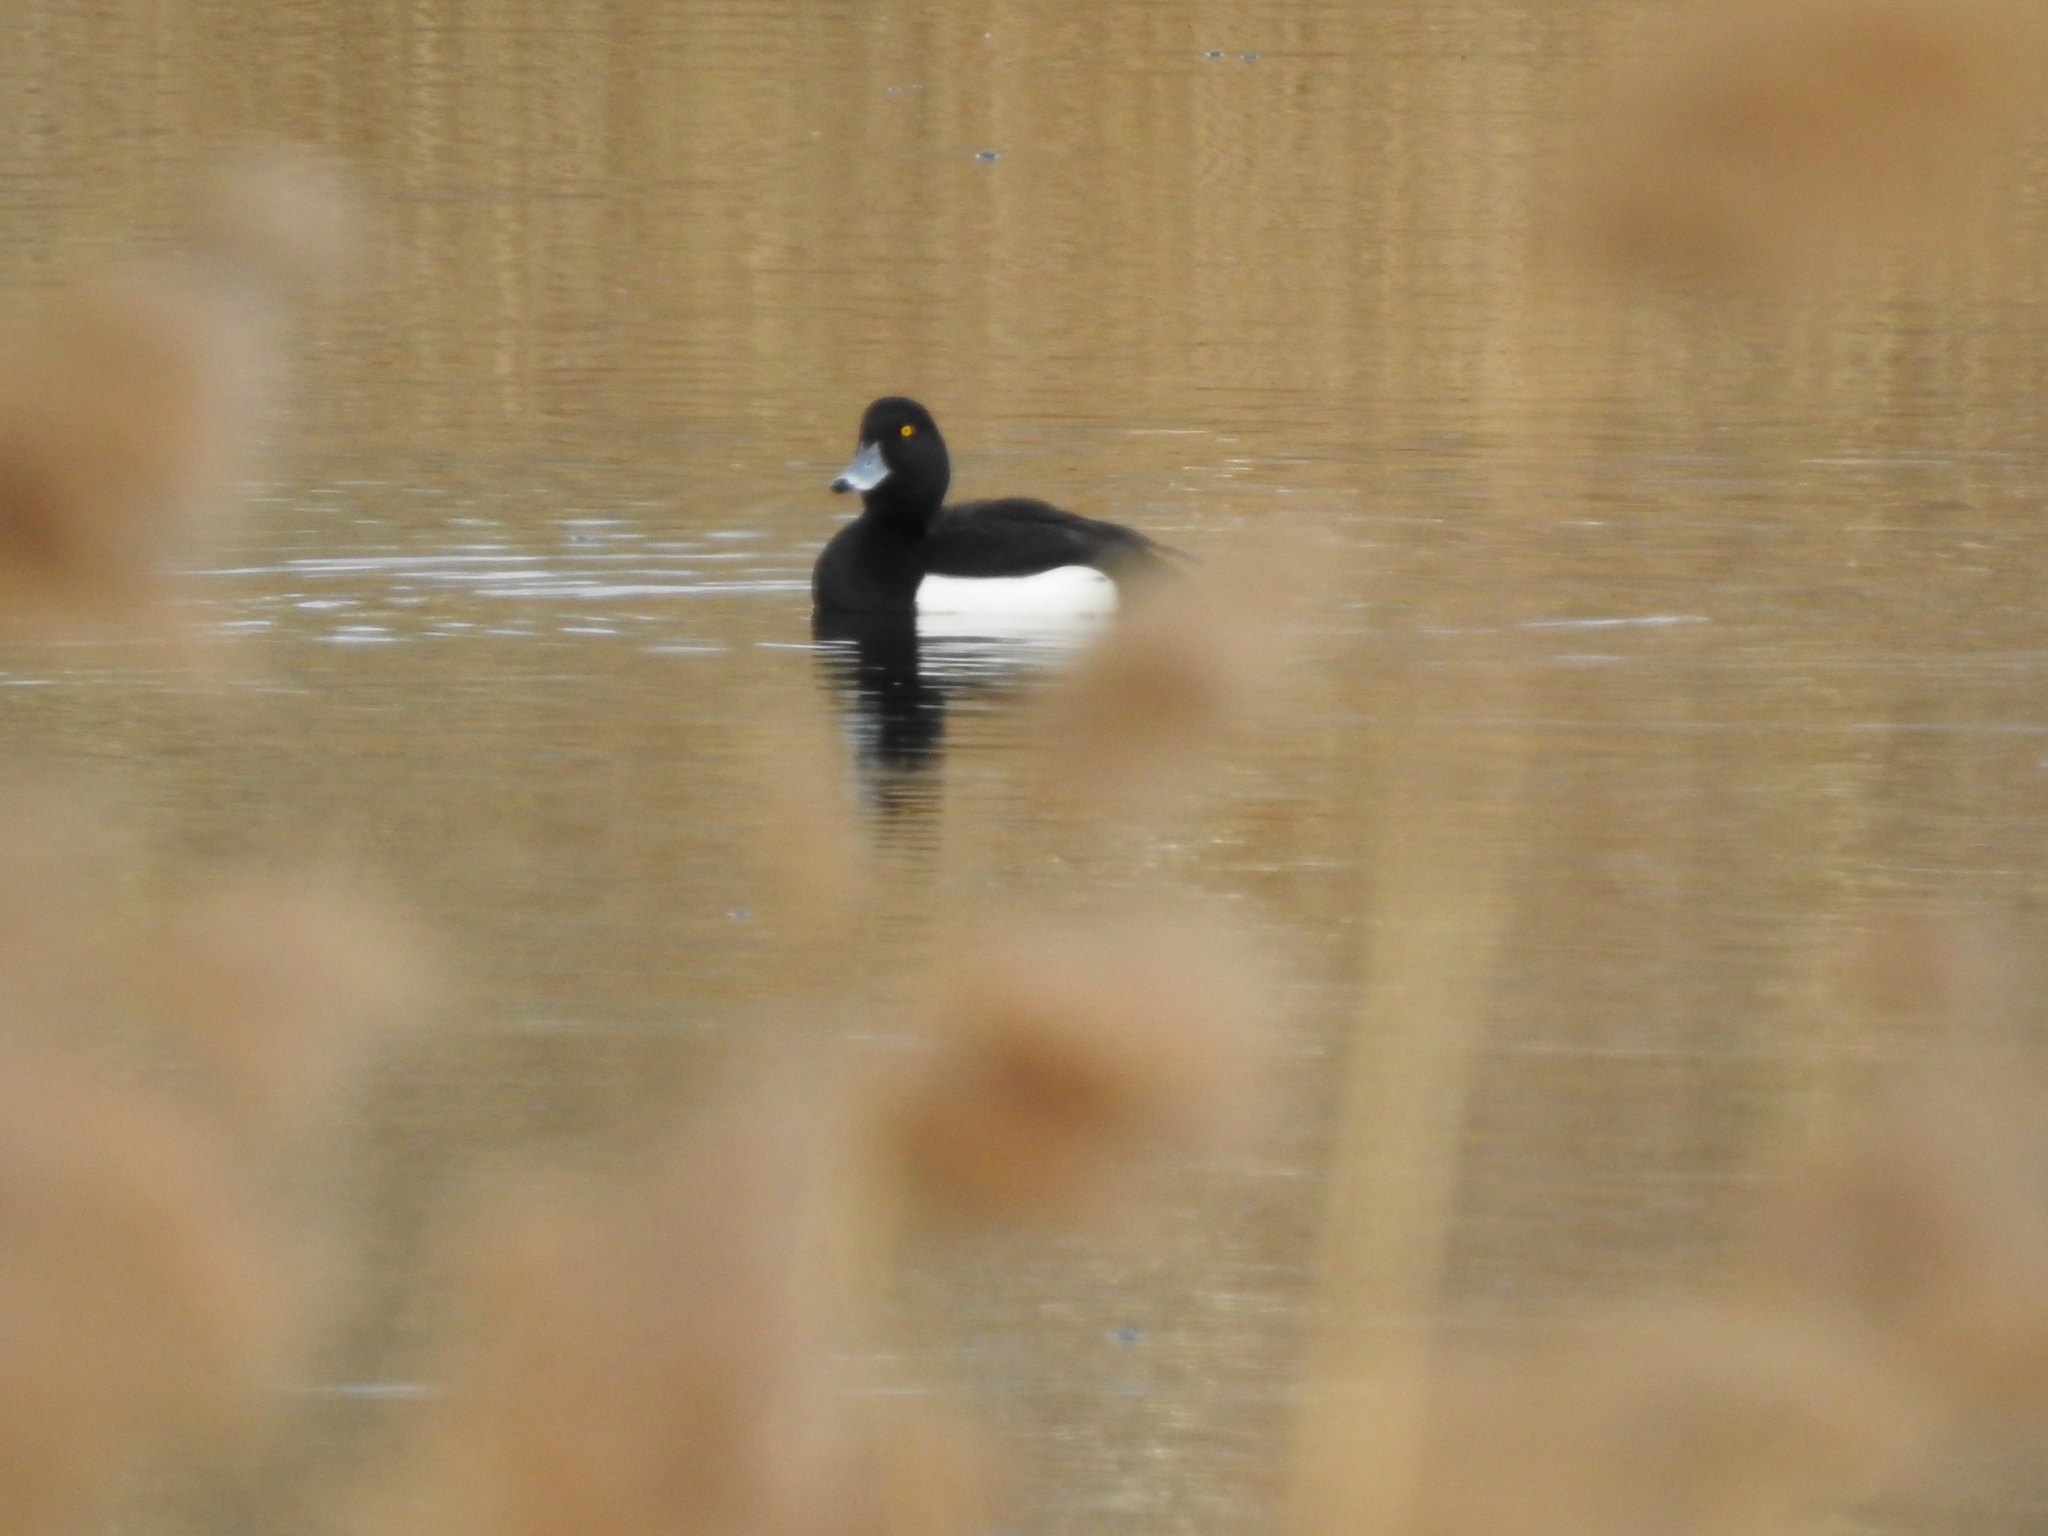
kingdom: Animalia
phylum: Chordata
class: Aves
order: Anseriformes
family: Anatidae
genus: Aythya
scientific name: Aythya fuligula
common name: Tufted duck
